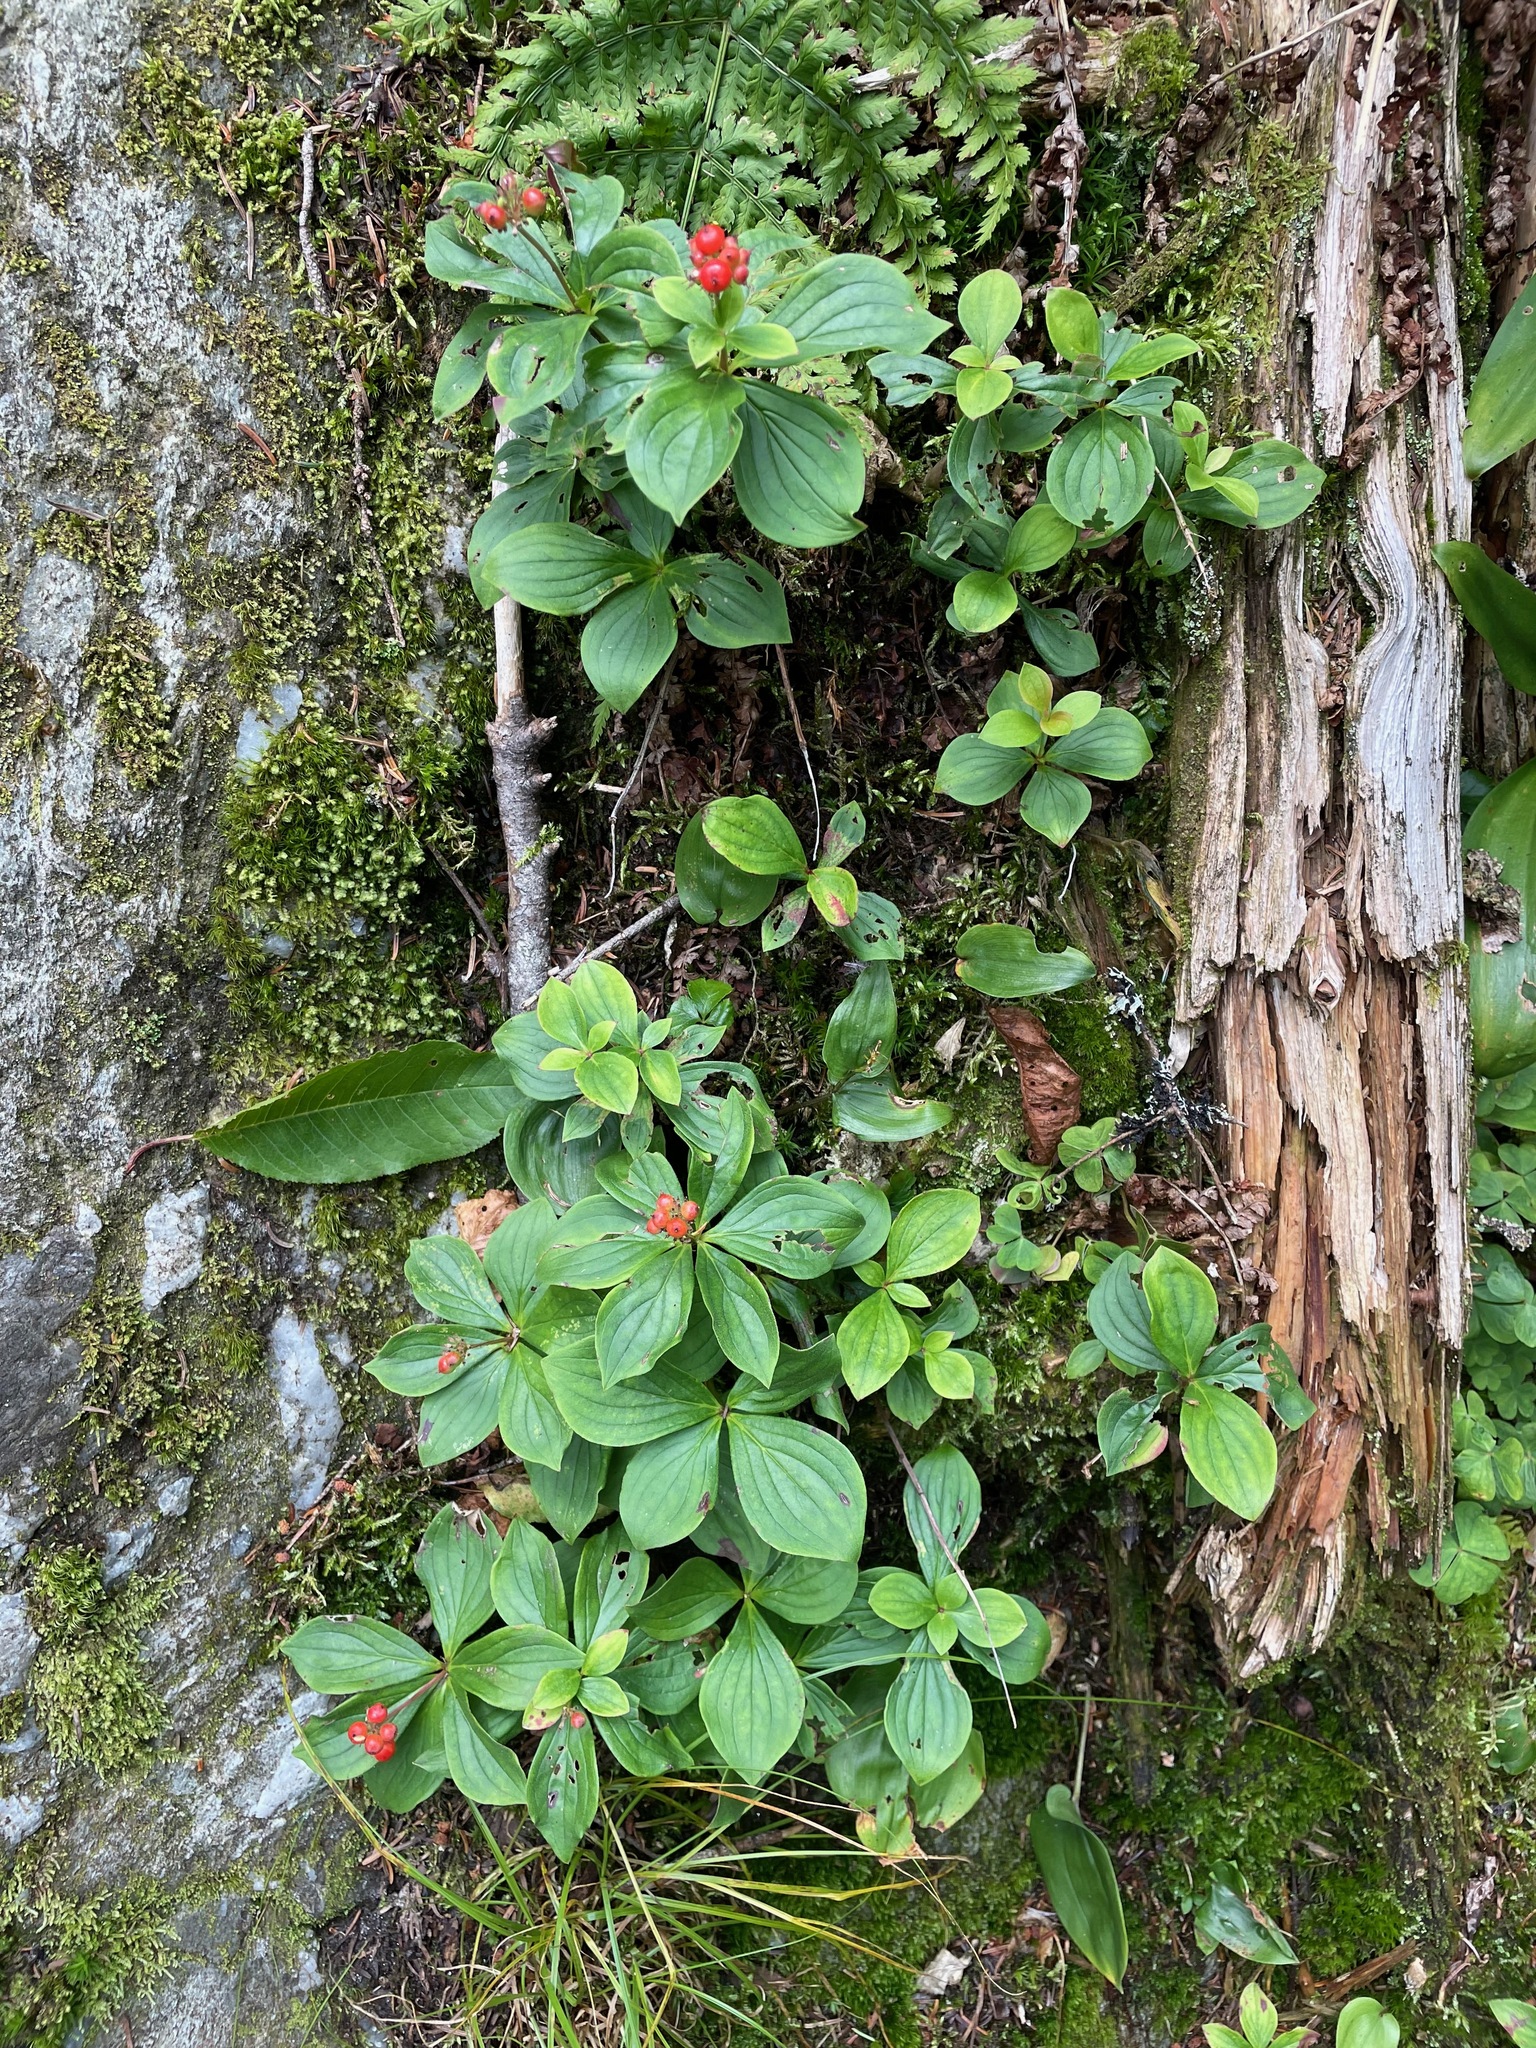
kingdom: Plantae
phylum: Tracheophyta
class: Magnoliopsida
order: Cornales
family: Cornaceae
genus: Cornus
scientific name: Cornus canadensis
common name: Creeping dogwood
